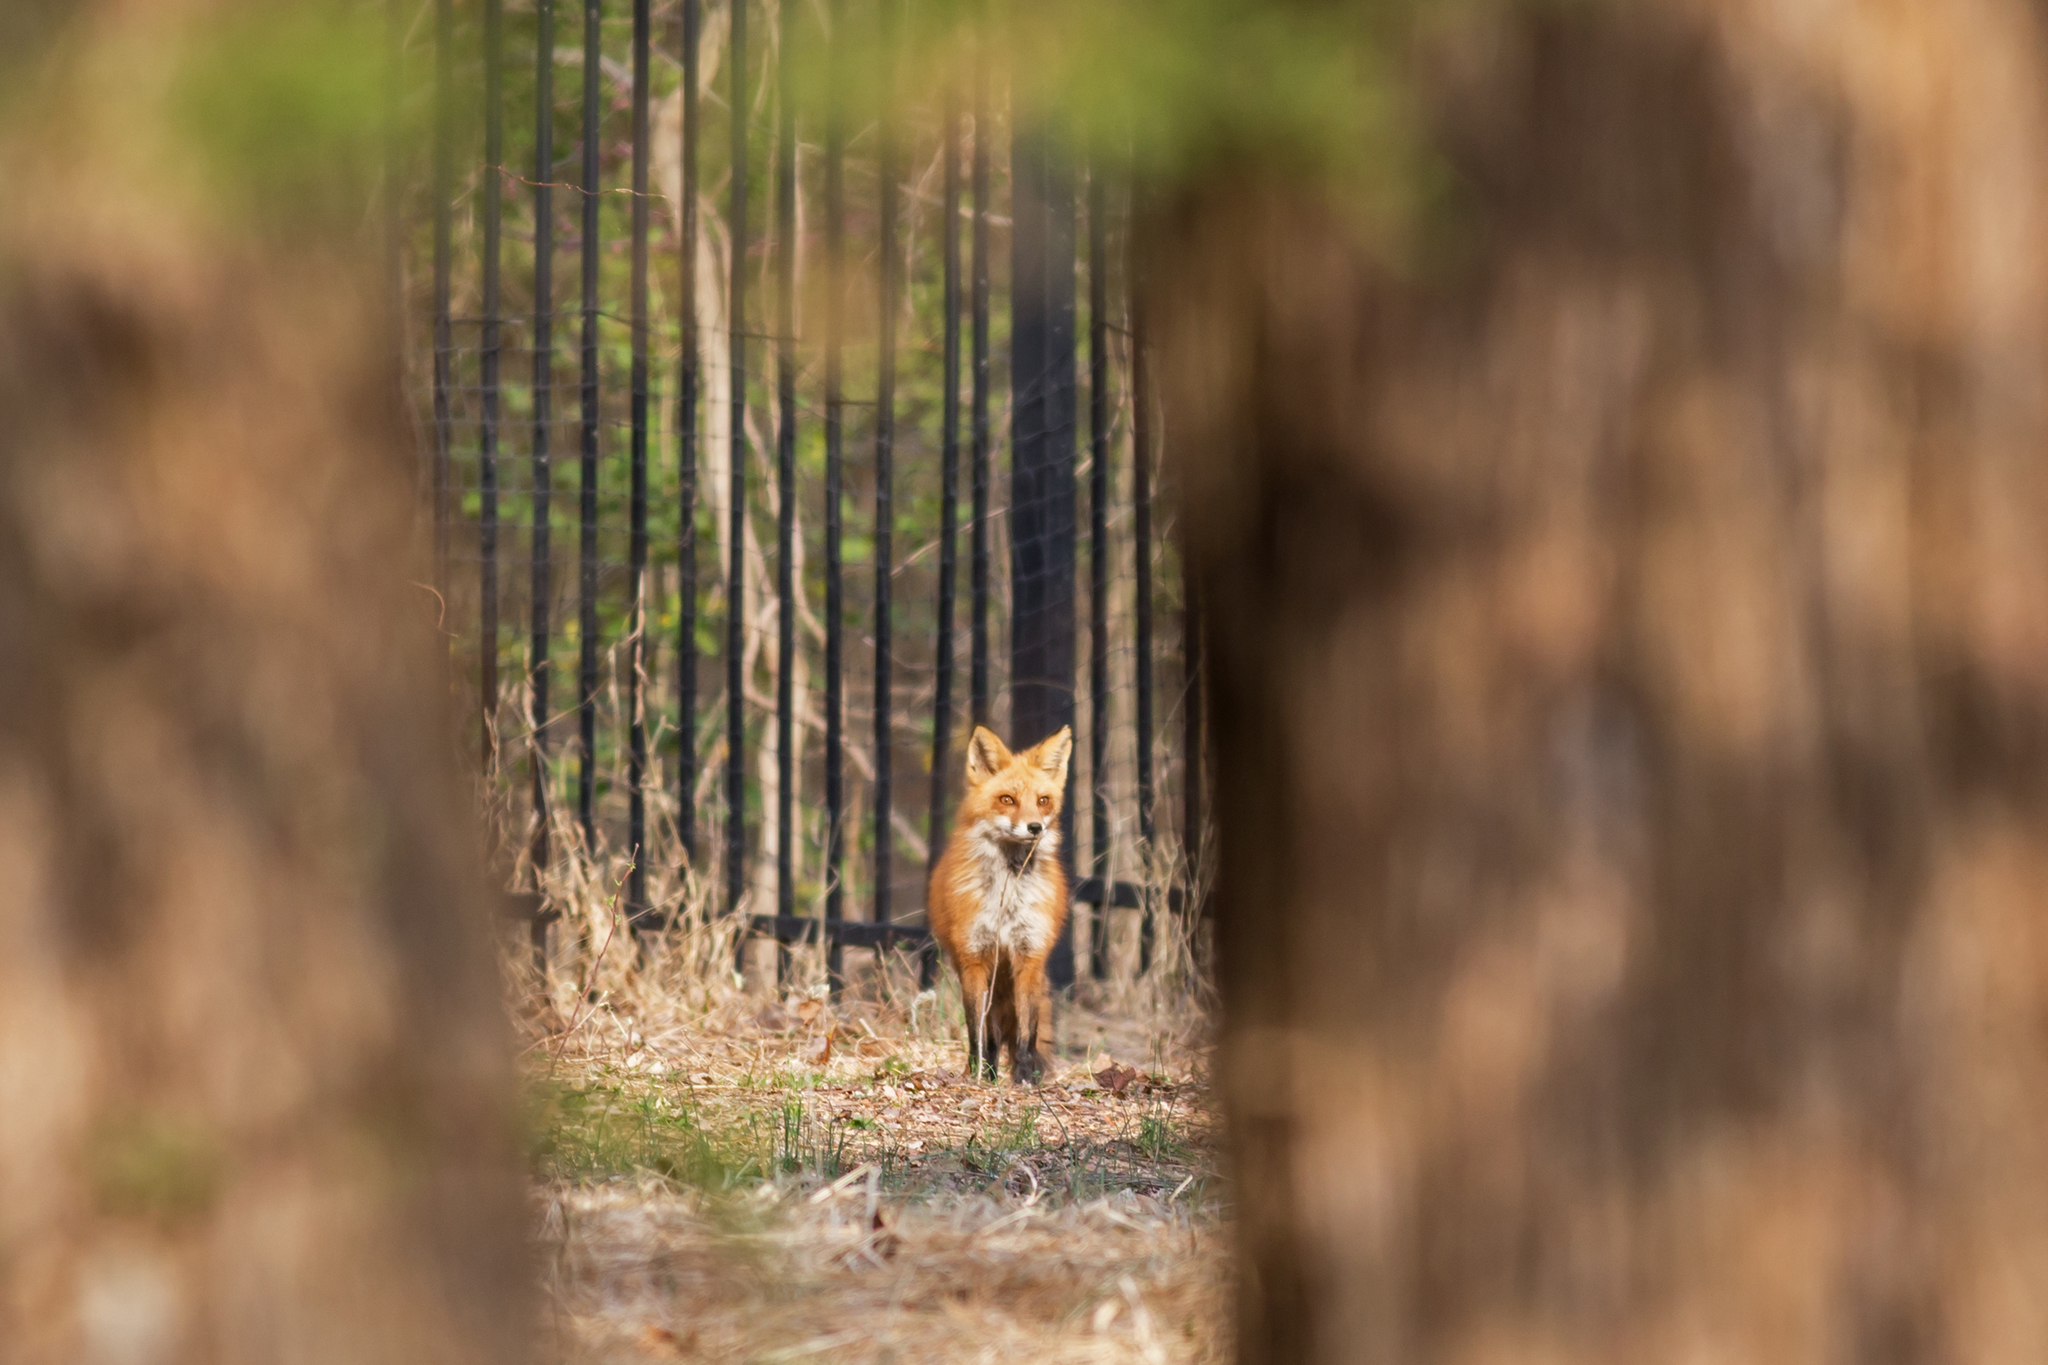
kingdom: Animalia
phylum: Chordata
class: Mammalia
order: Carnivora
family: Canidae
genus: Vulpes
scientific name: Vulpes vulpes
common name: Red fox
